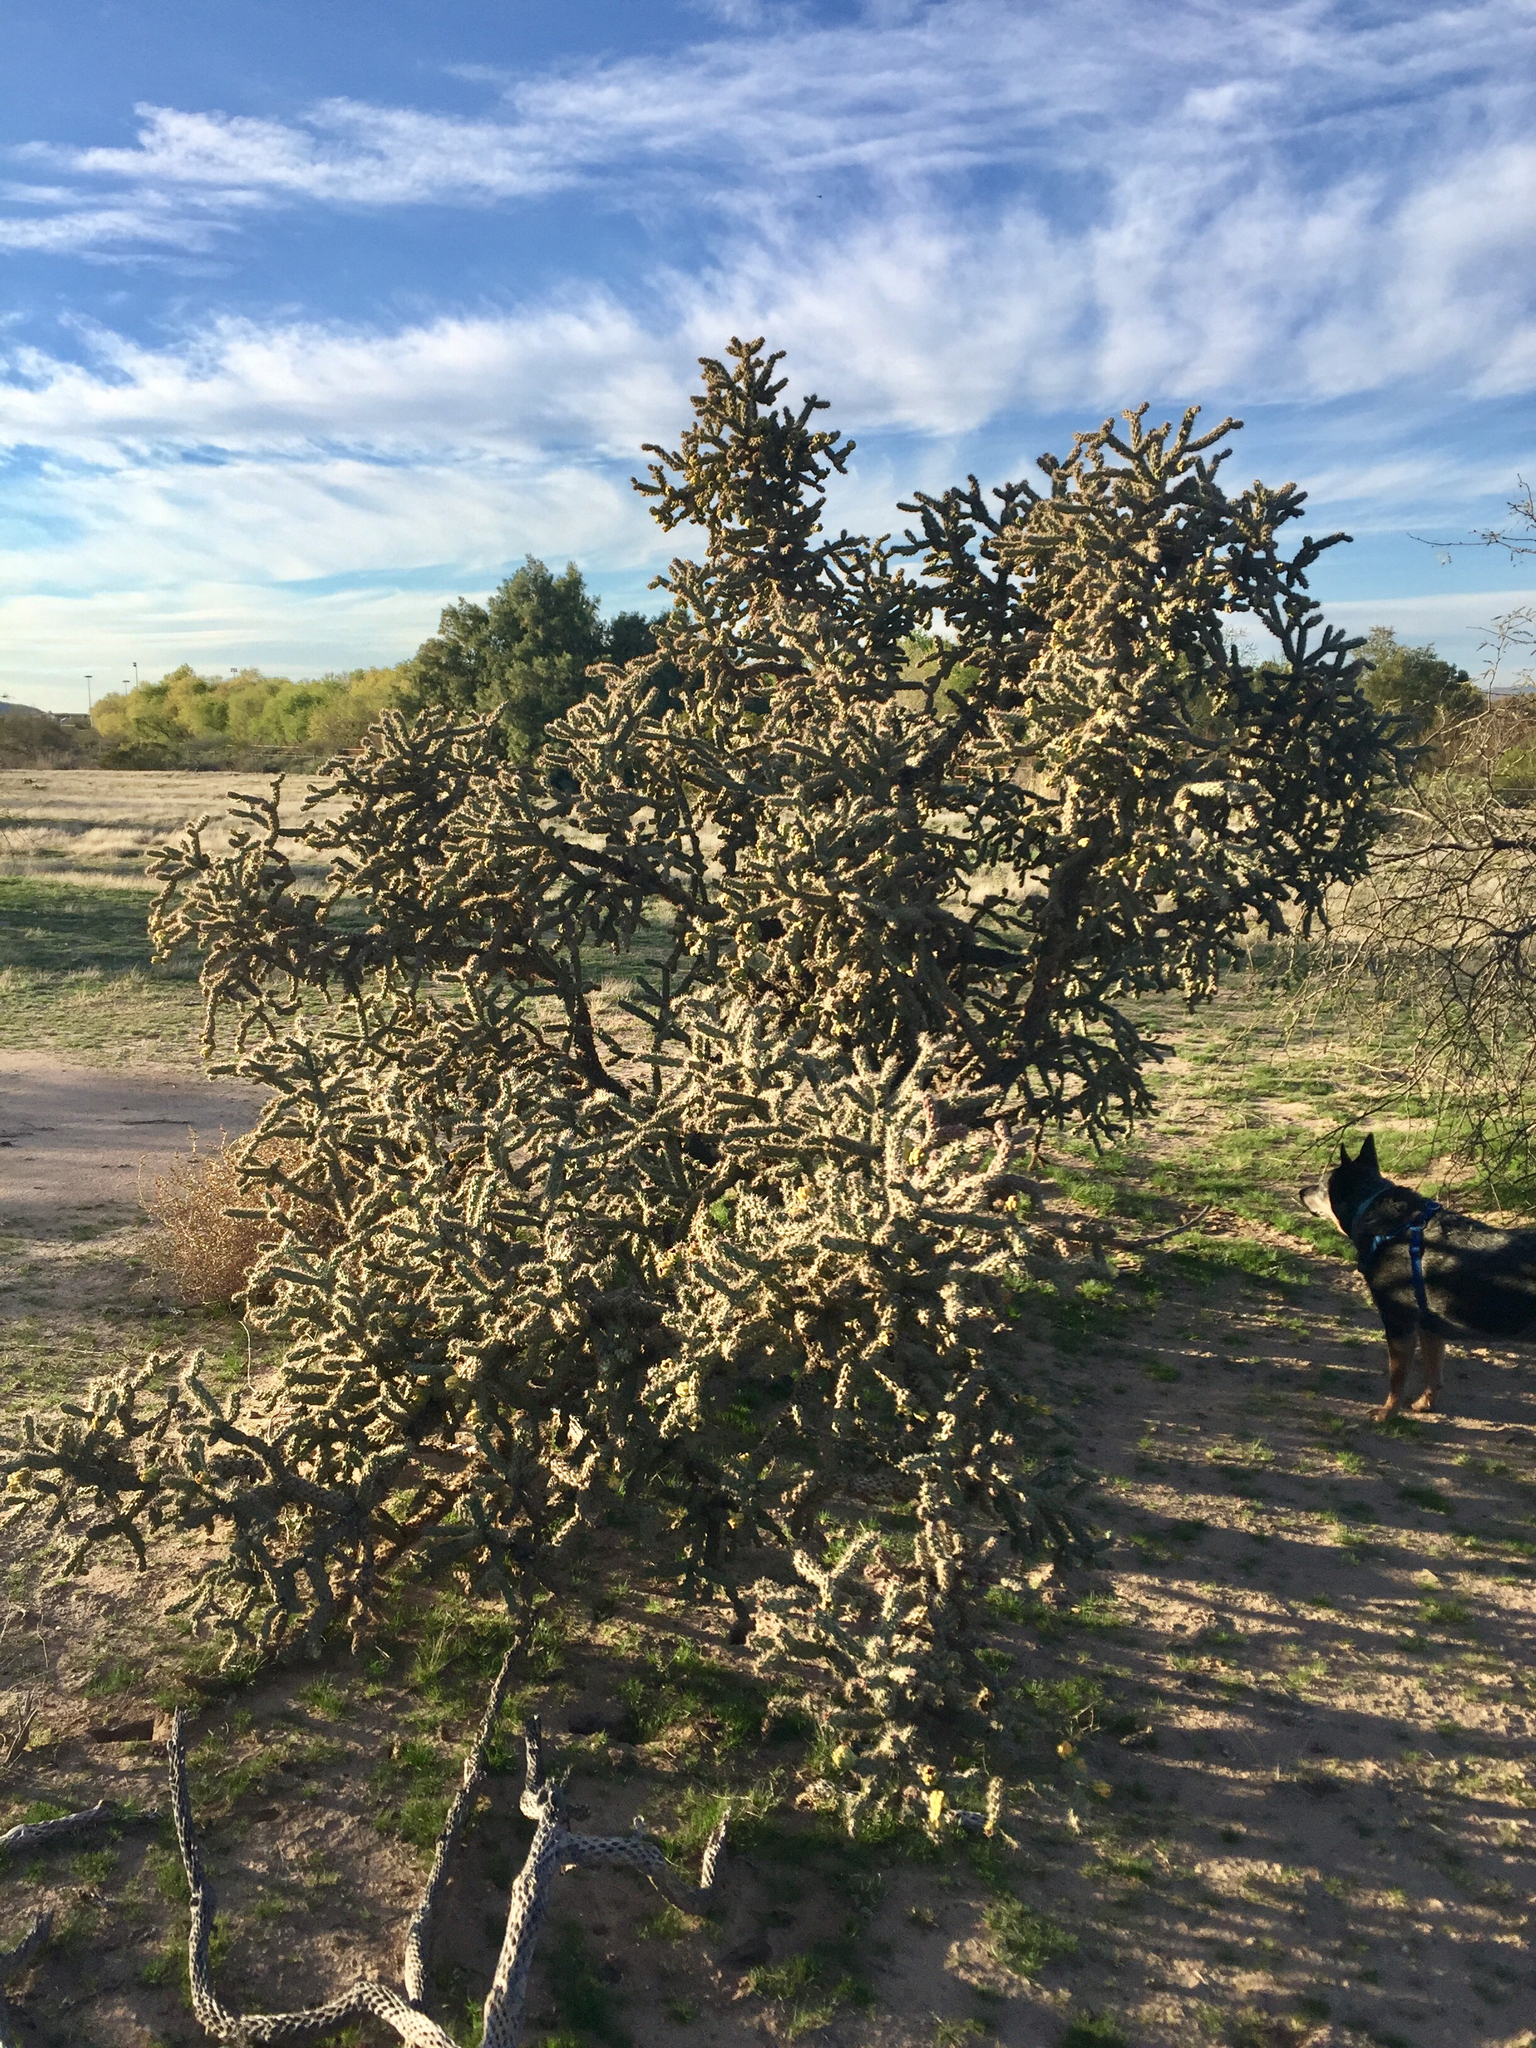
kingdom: Plantae
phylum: Tracheophyta
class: Magnoliopsida
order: Caryophyllales
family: Cactaceae
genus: Cylindropuntia
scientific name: Cylindropuntia imbricata
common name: Candelabrum cactus
